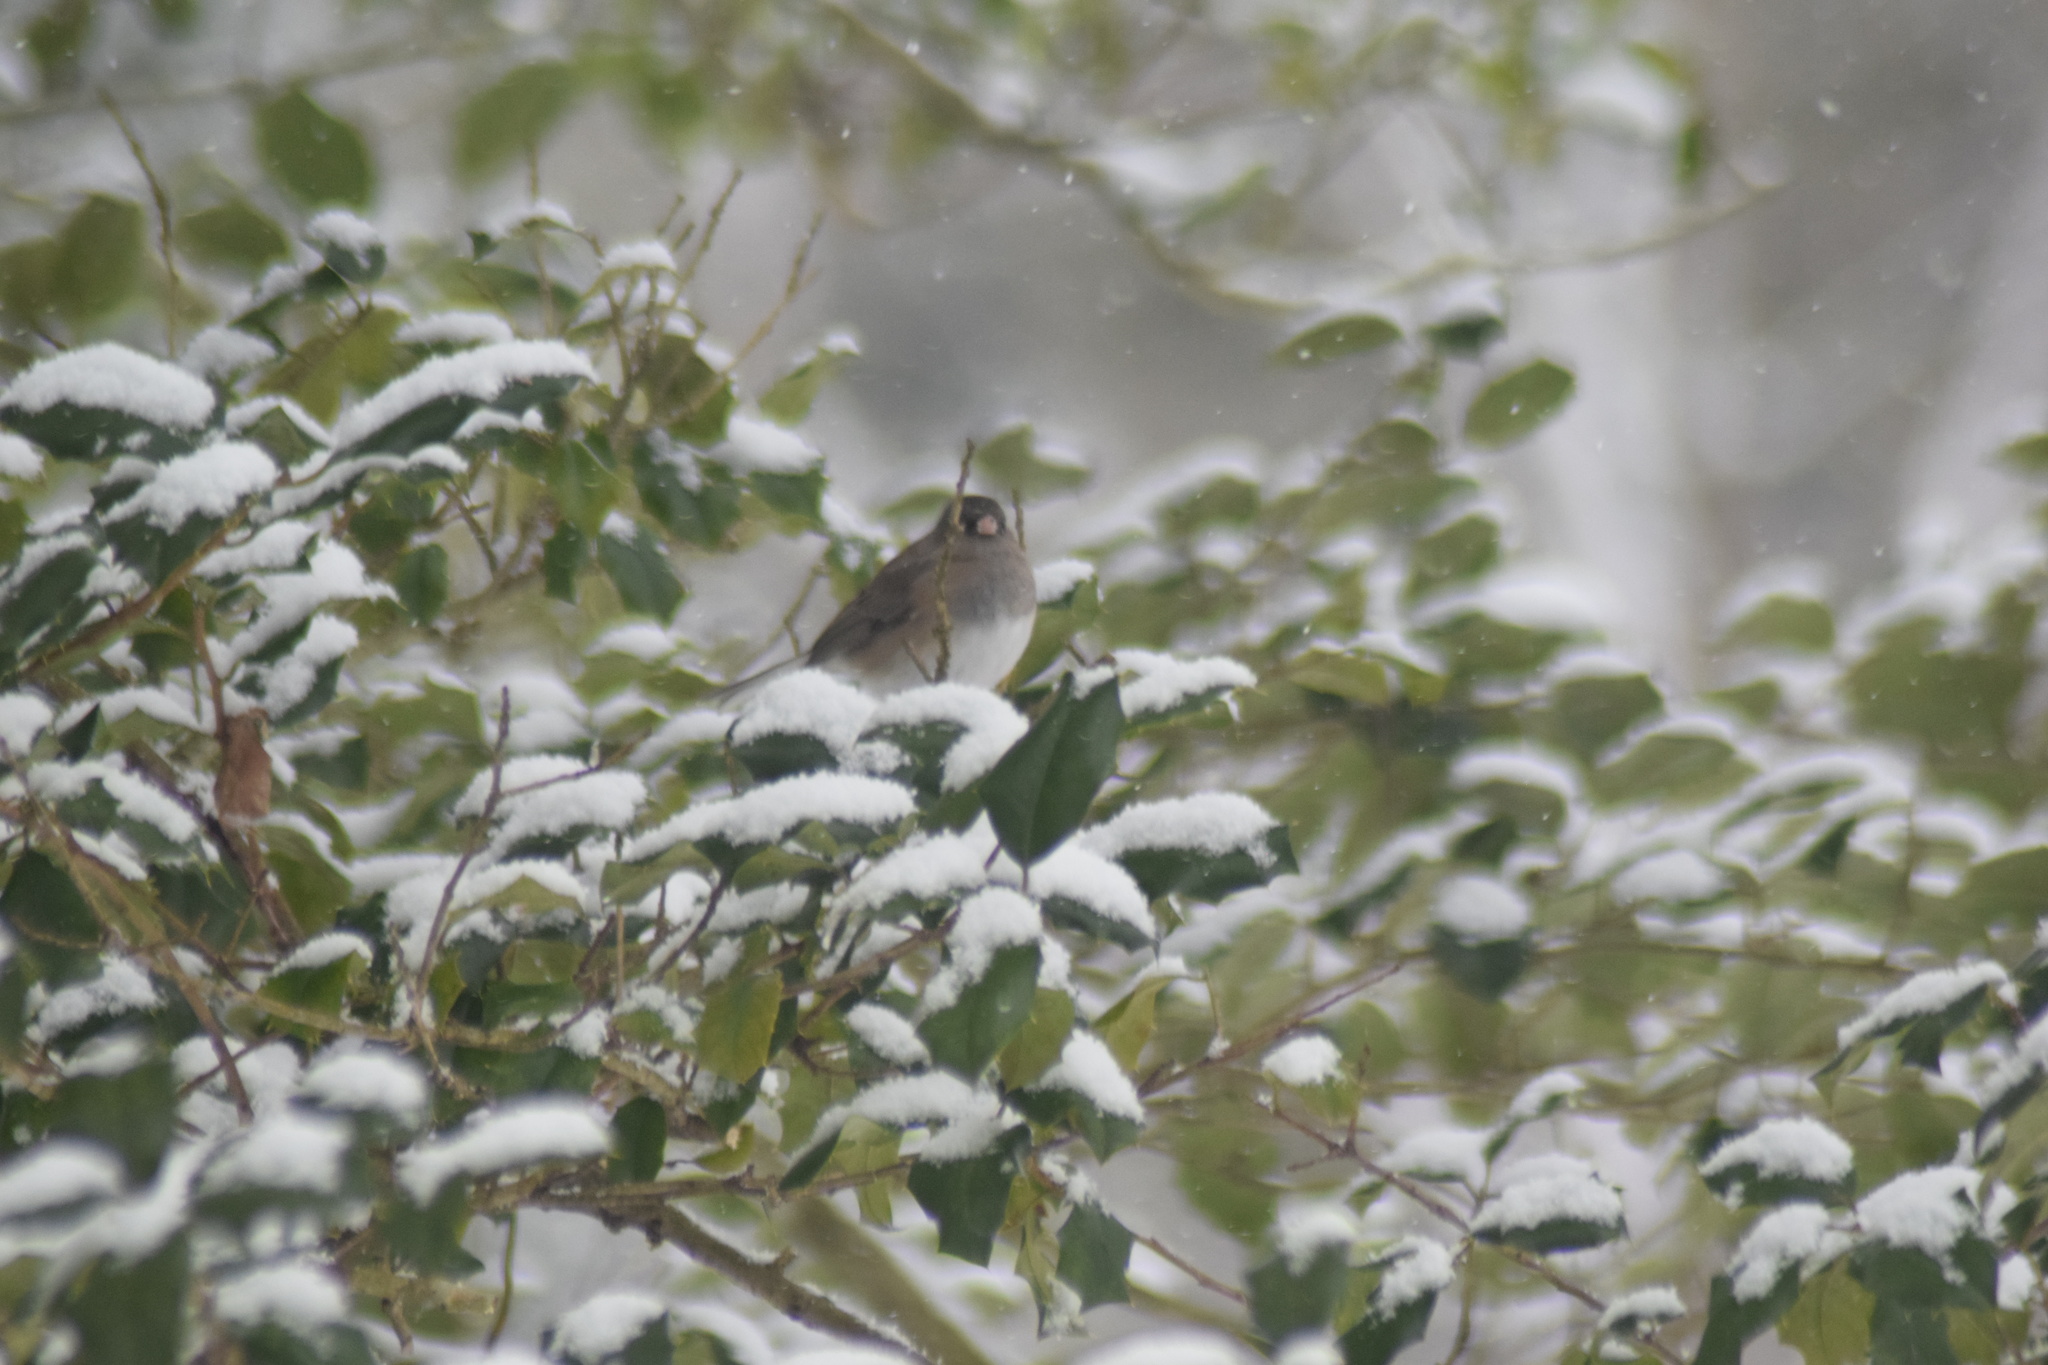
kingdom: Animalia
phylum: Chordata
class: Aves
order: Passeriformes
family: Passerellidae
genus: Junco
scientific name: Junco hyemalis
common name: Dark-eyed junco
